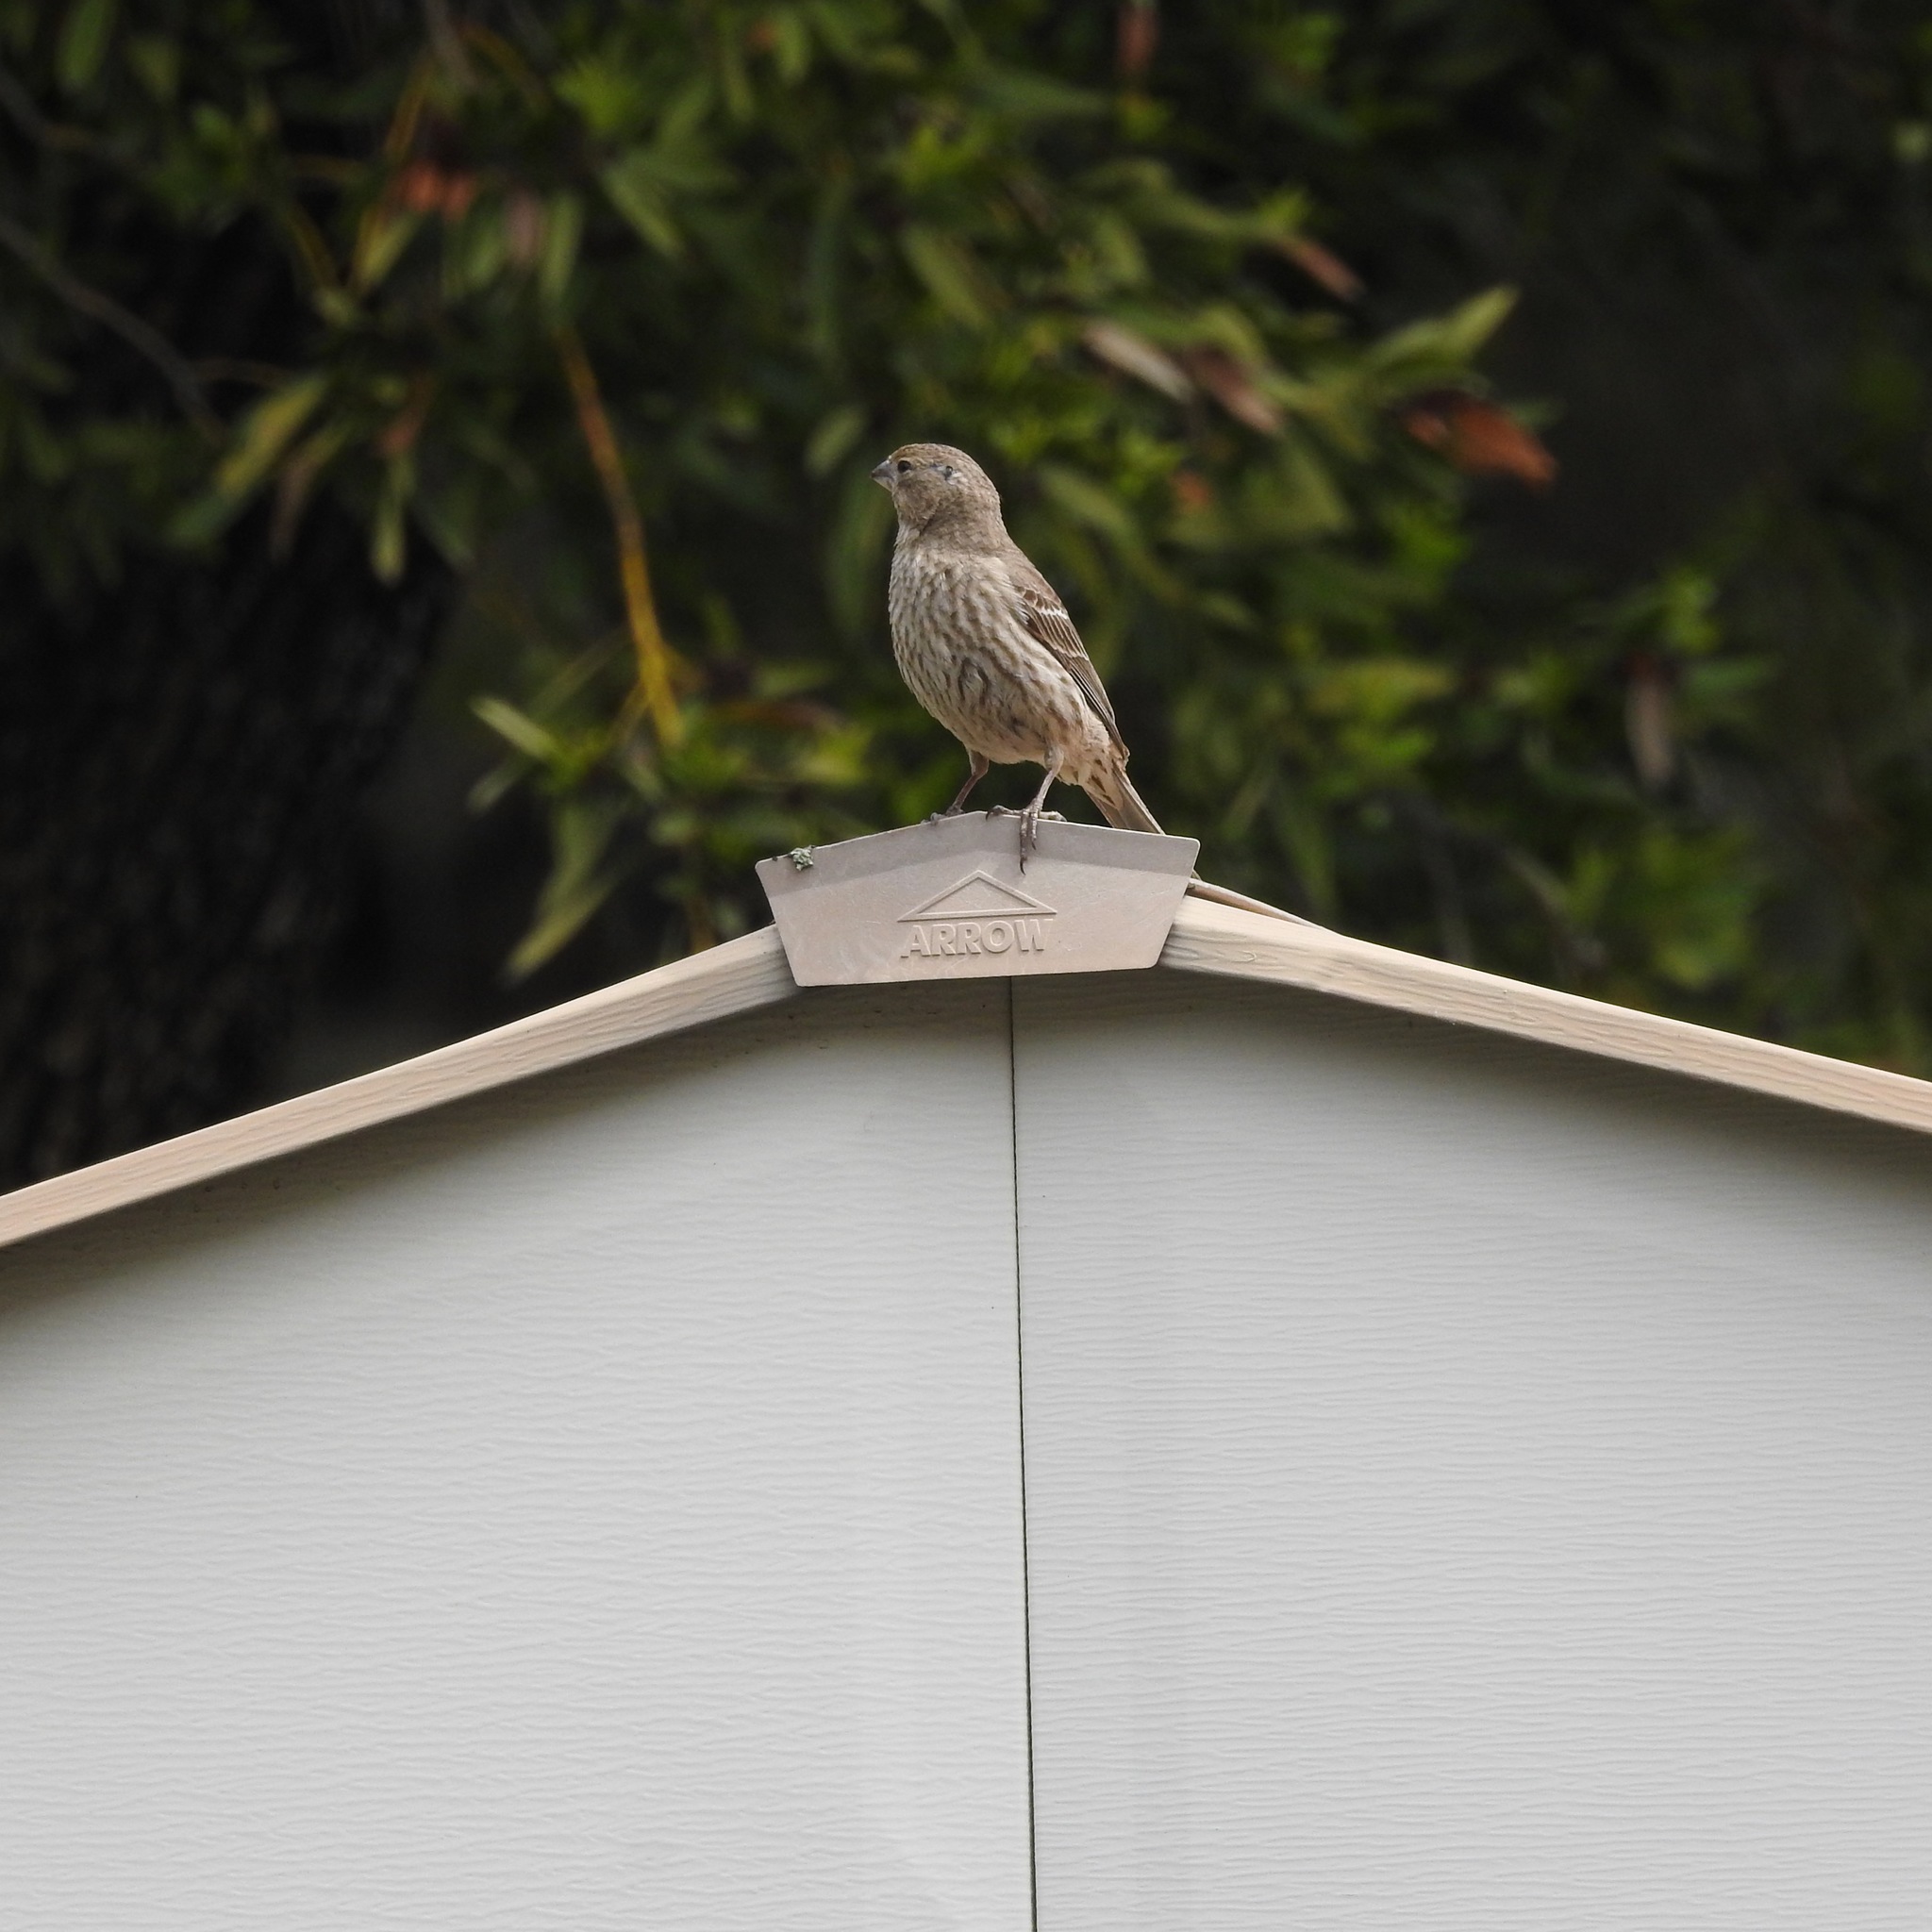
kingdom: Animalia
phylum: Chordata
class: Aves
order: Passeriformes
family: Fringillidae
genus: Haemorhous
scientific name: Haemorhous mexicanus
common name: House finch
